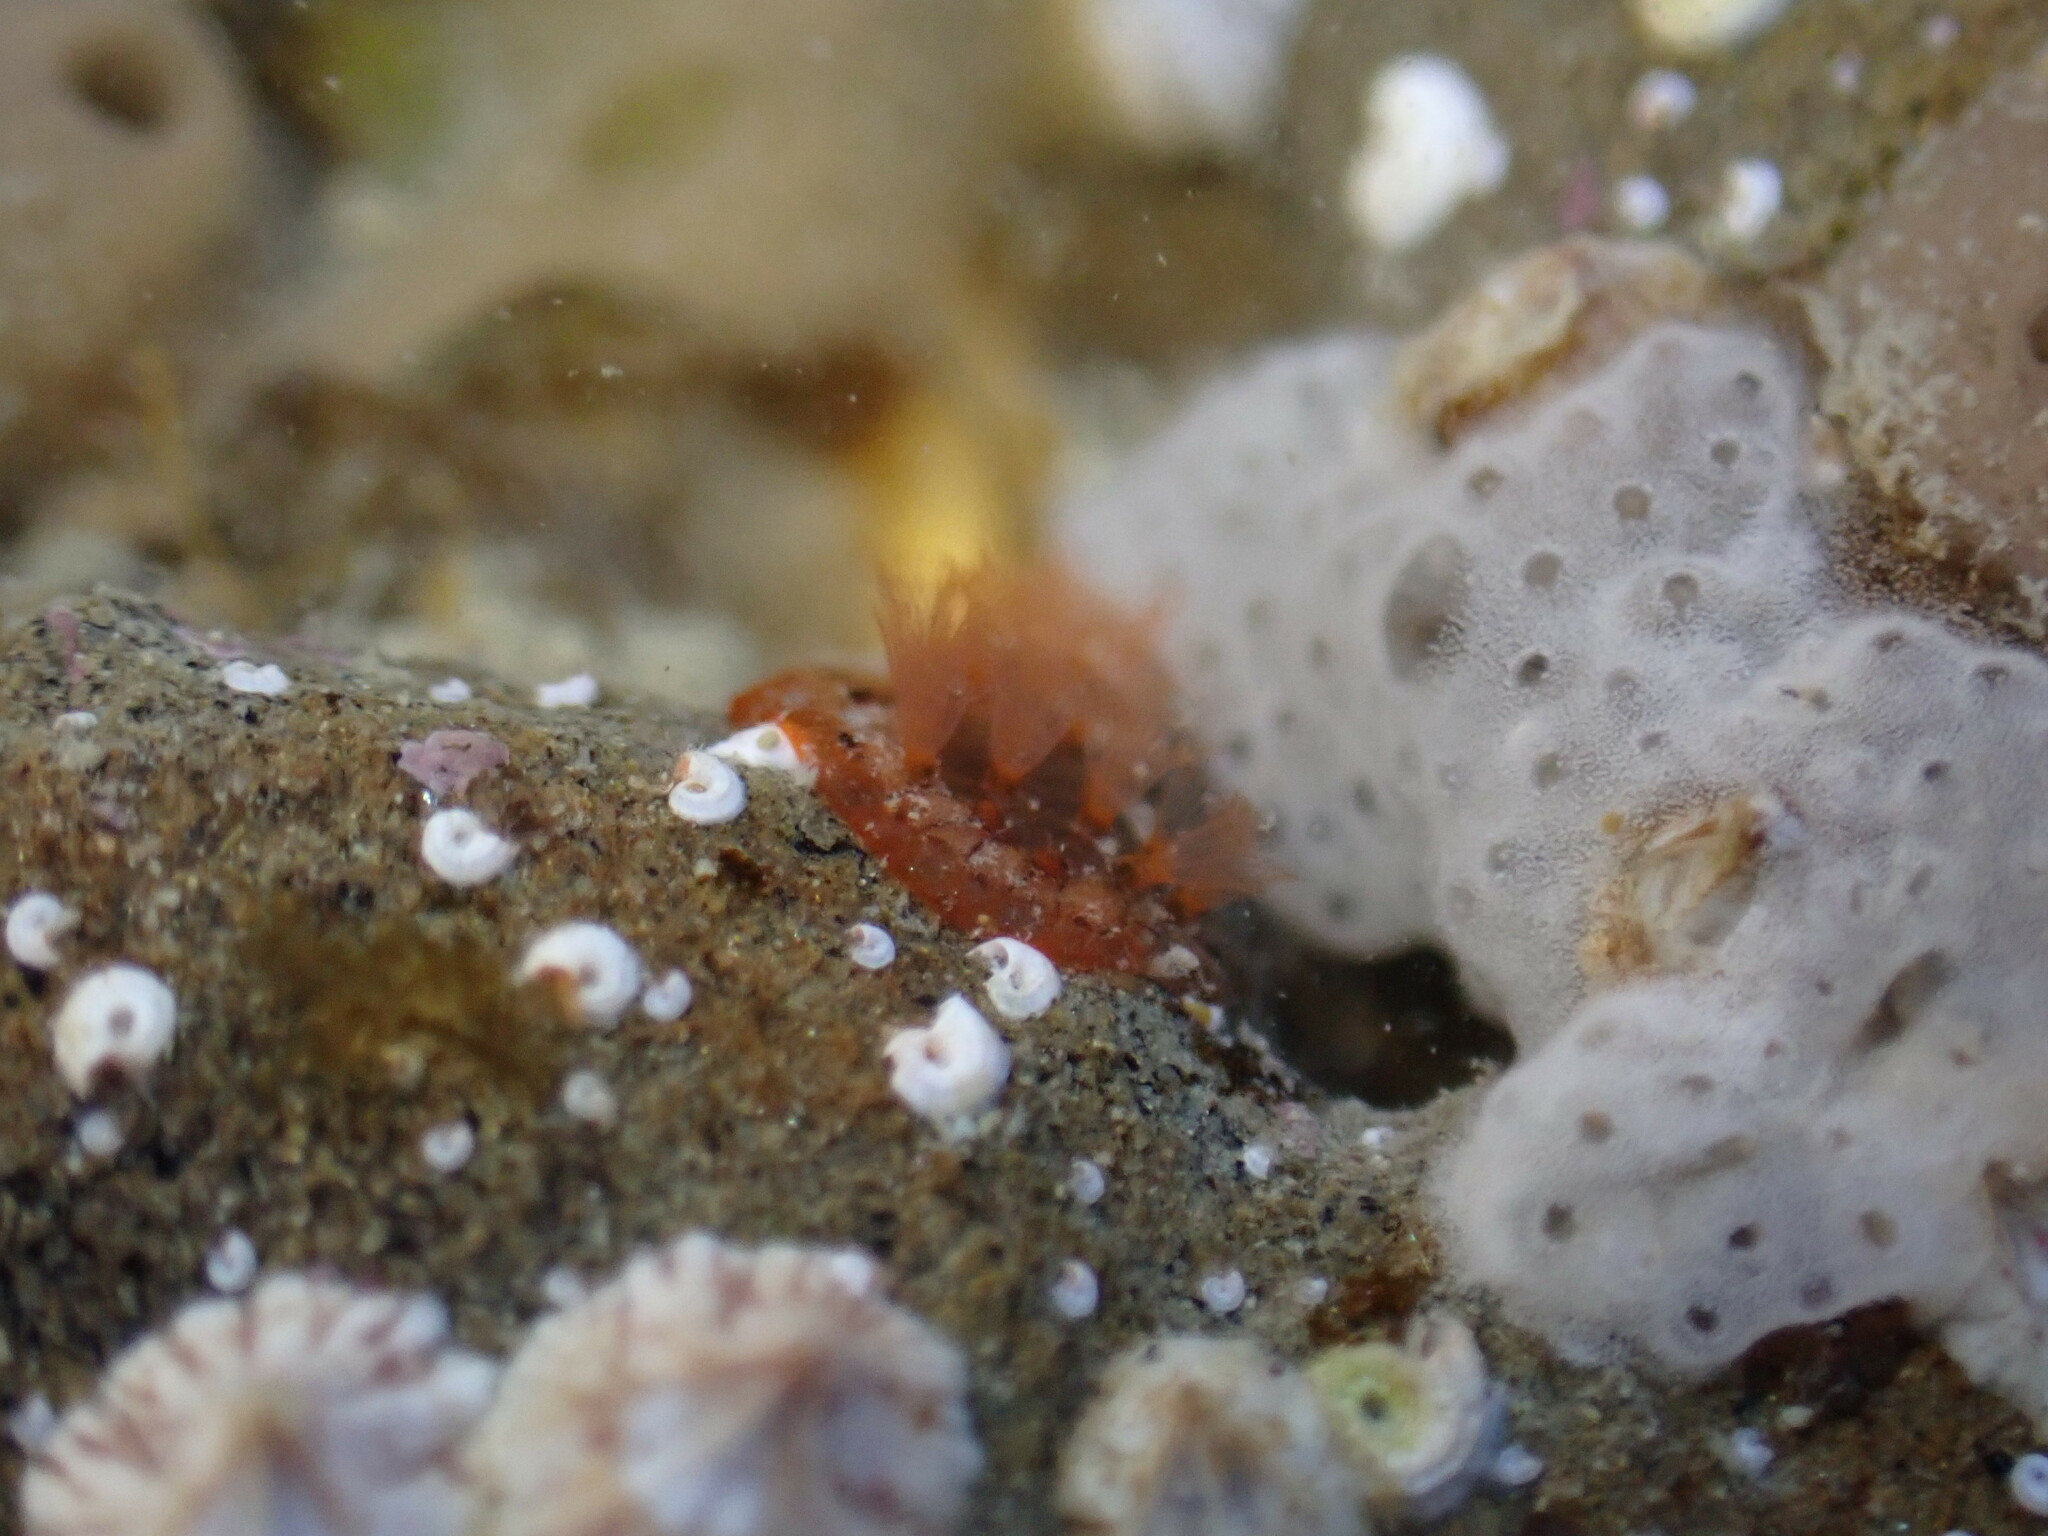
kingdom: Animalia
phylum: Bryozoa
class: Gymnolaemata
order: Cheilostomatida
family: Watersiporidae
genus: Watersipora
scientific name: Watersipora subatra
